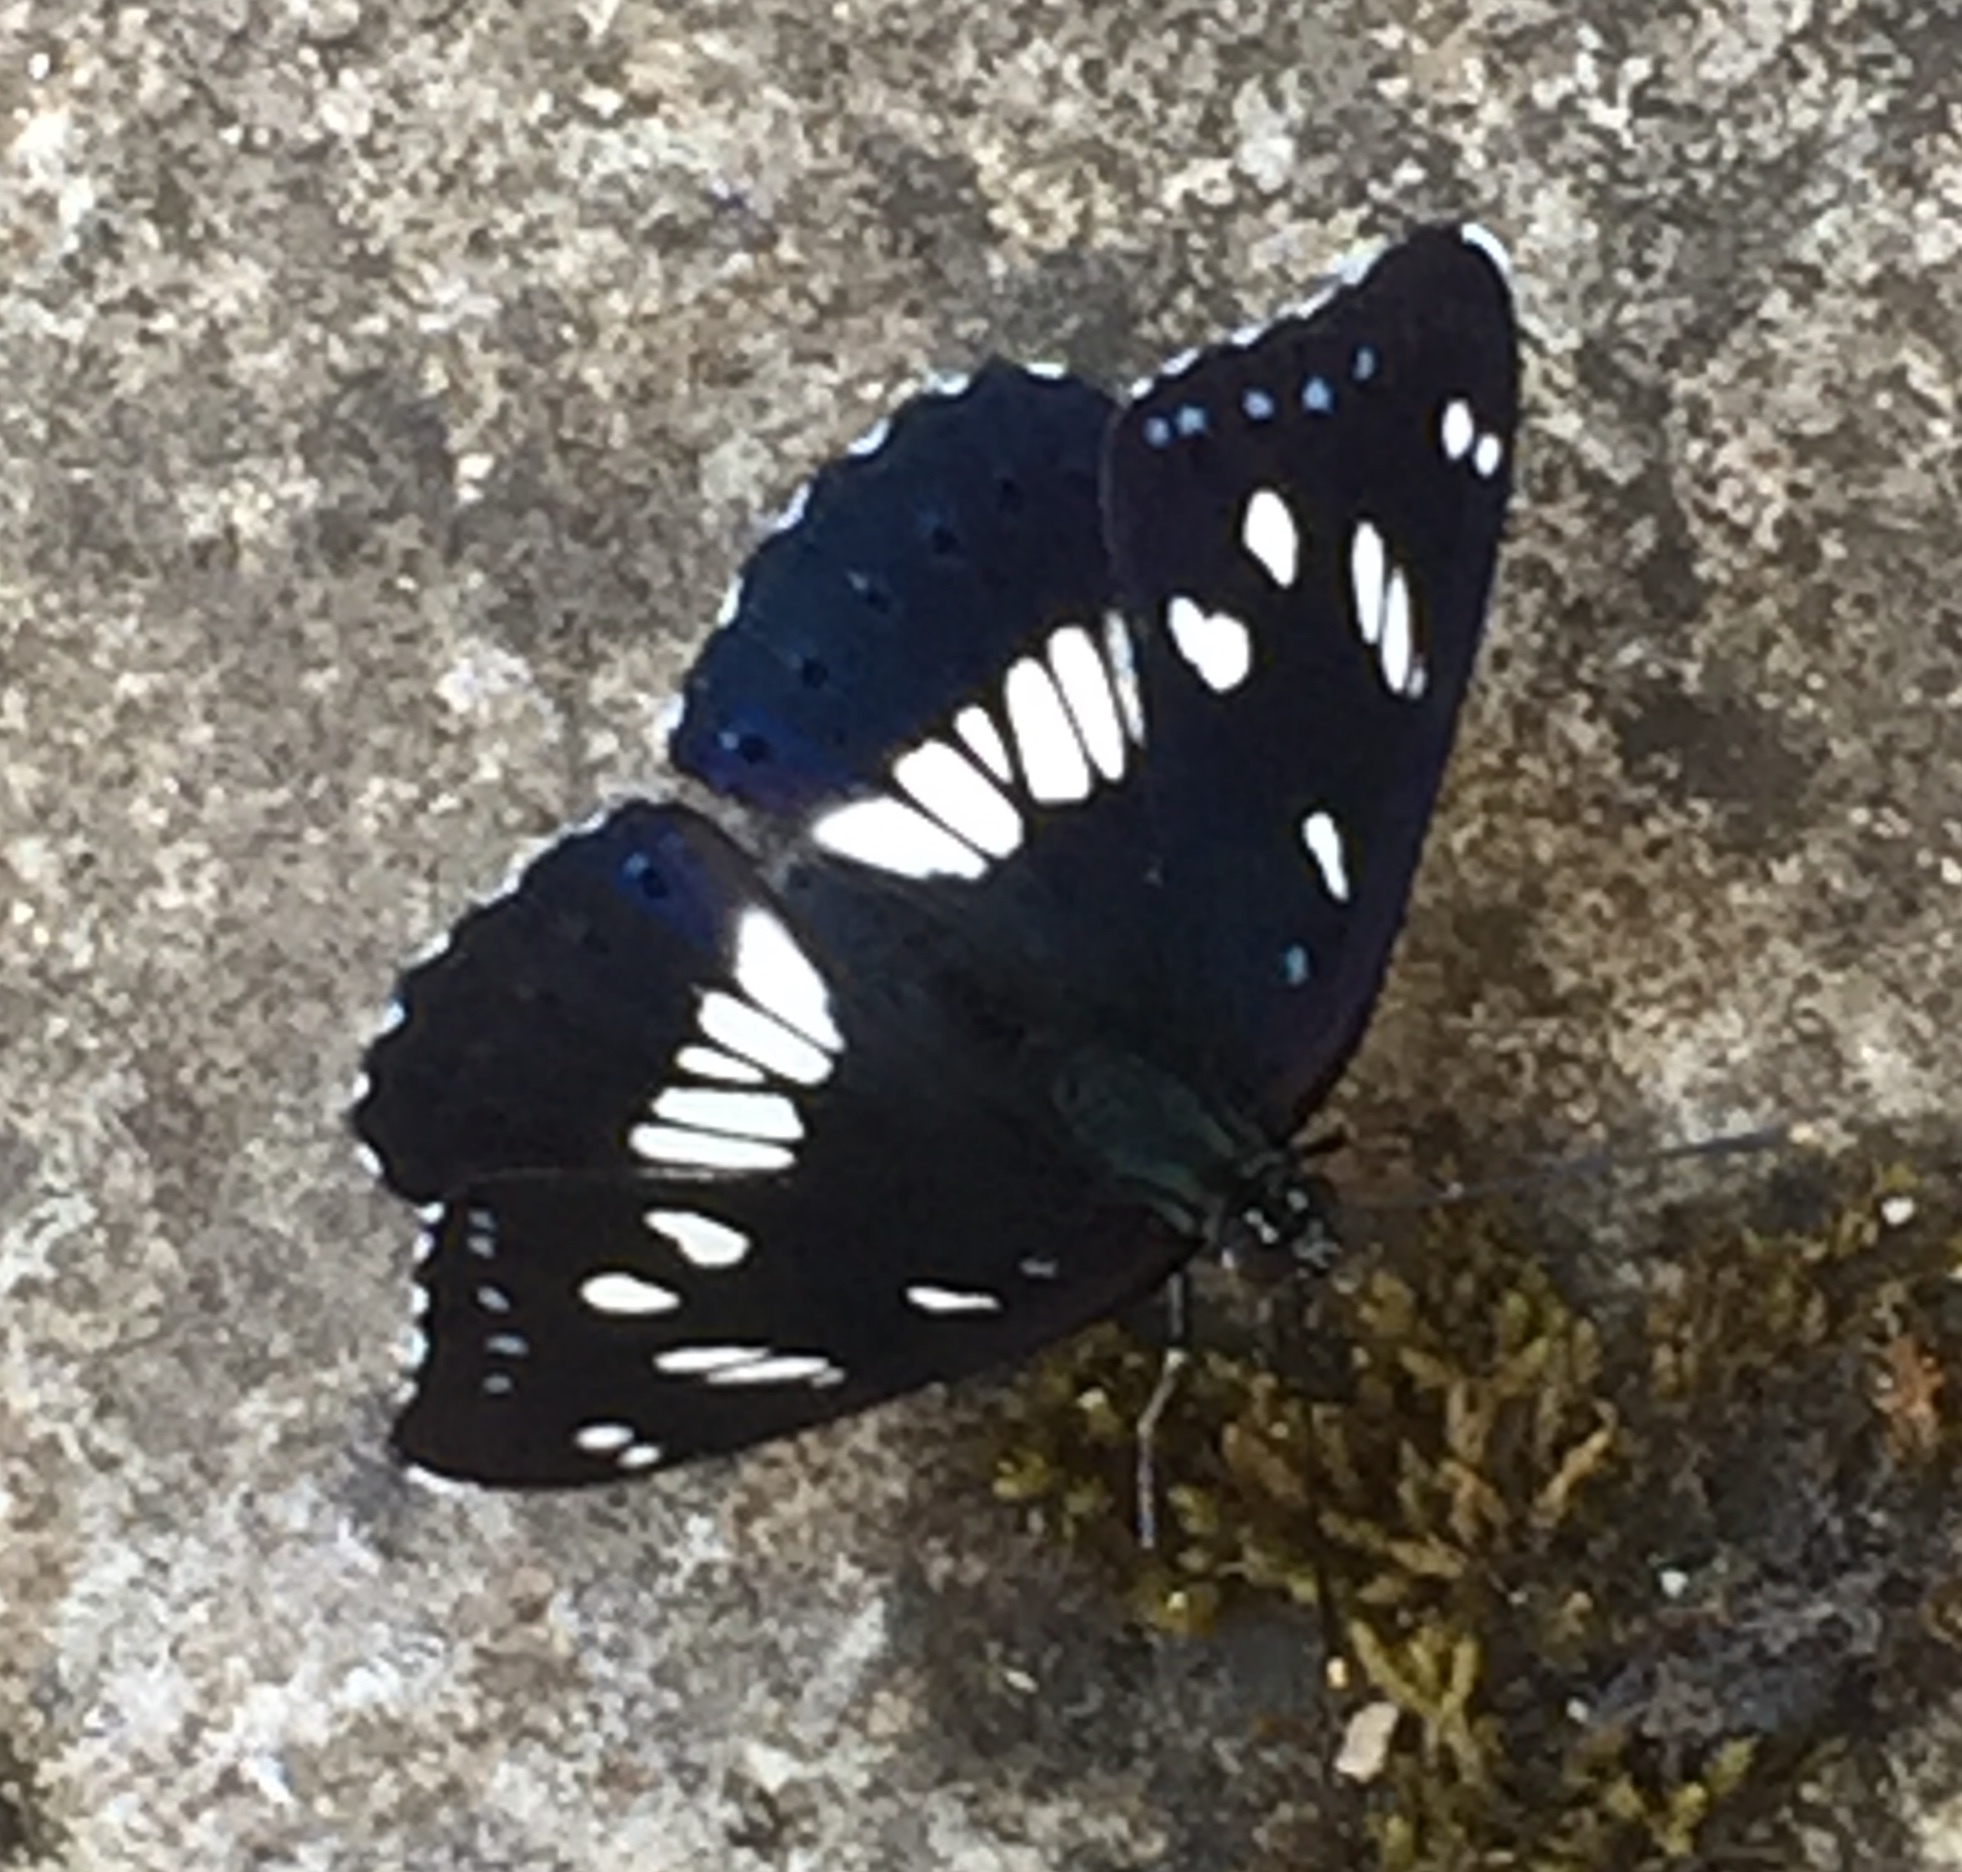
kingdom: Animalia
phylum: Arthropoda
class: Insecta
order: Lepidoptera
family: Nymphalidae
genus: Limenitis
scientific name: Limenitis reducta
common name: Southern white admiral
